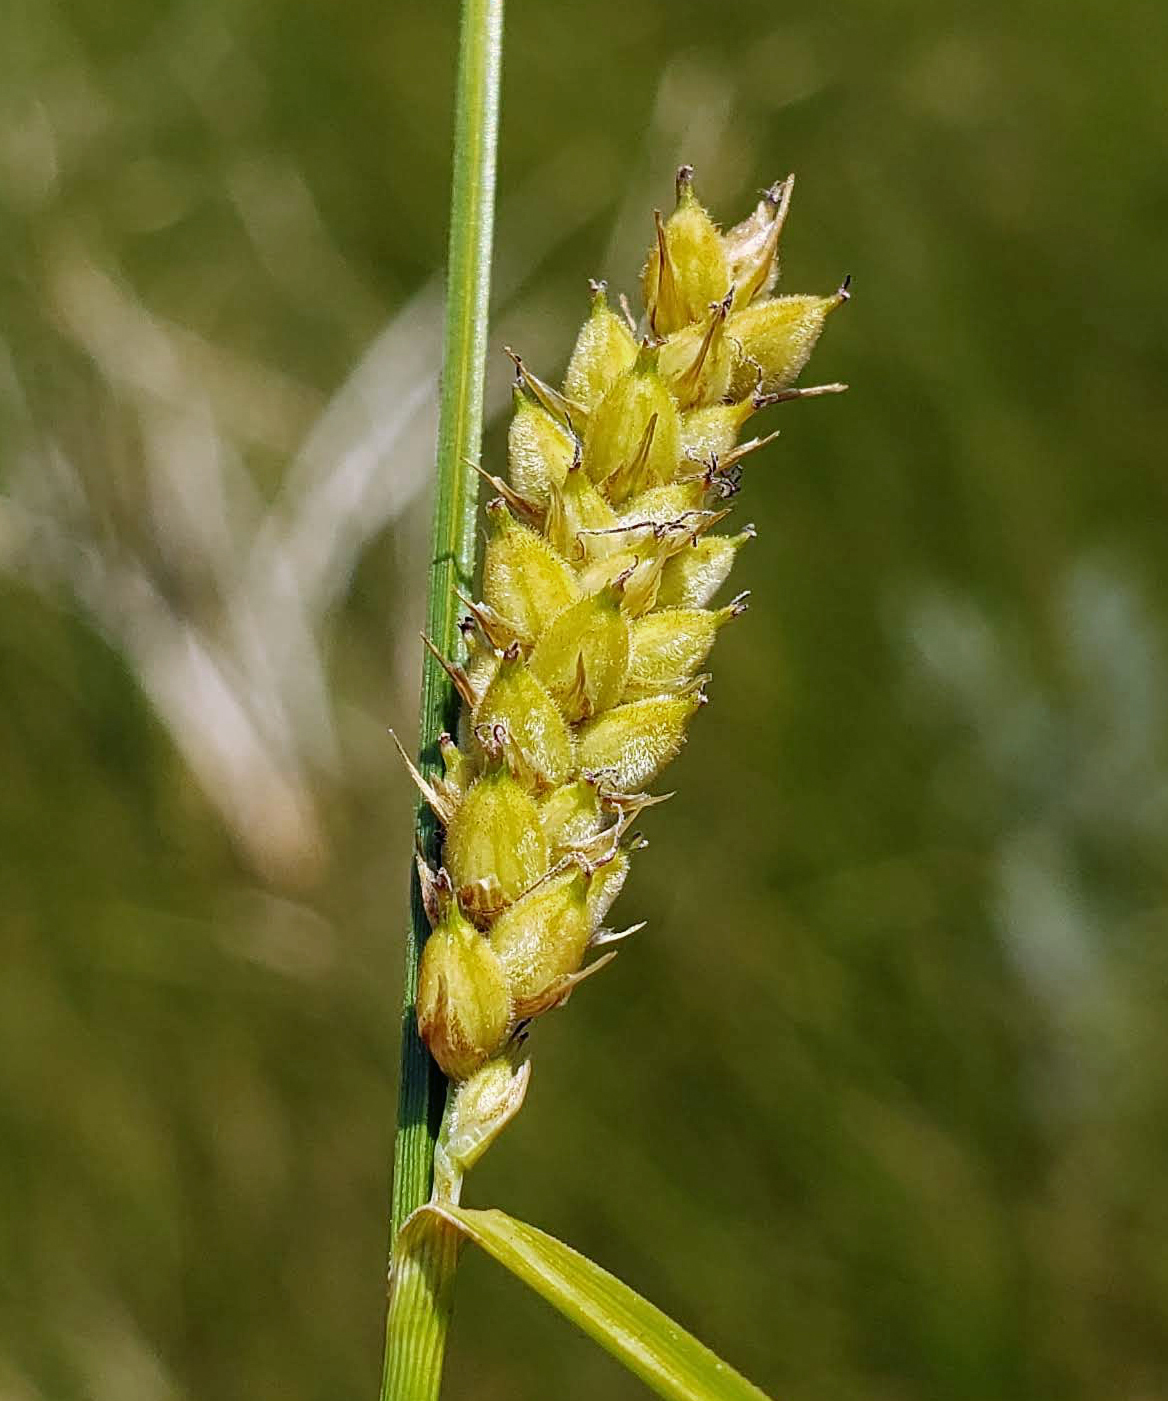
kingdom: Plantae
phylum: Tracheophyta
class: Liliopsida
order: Poales
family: Cyperaceae
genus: Carex
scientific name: Carex pellita
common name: Woolly sedge
